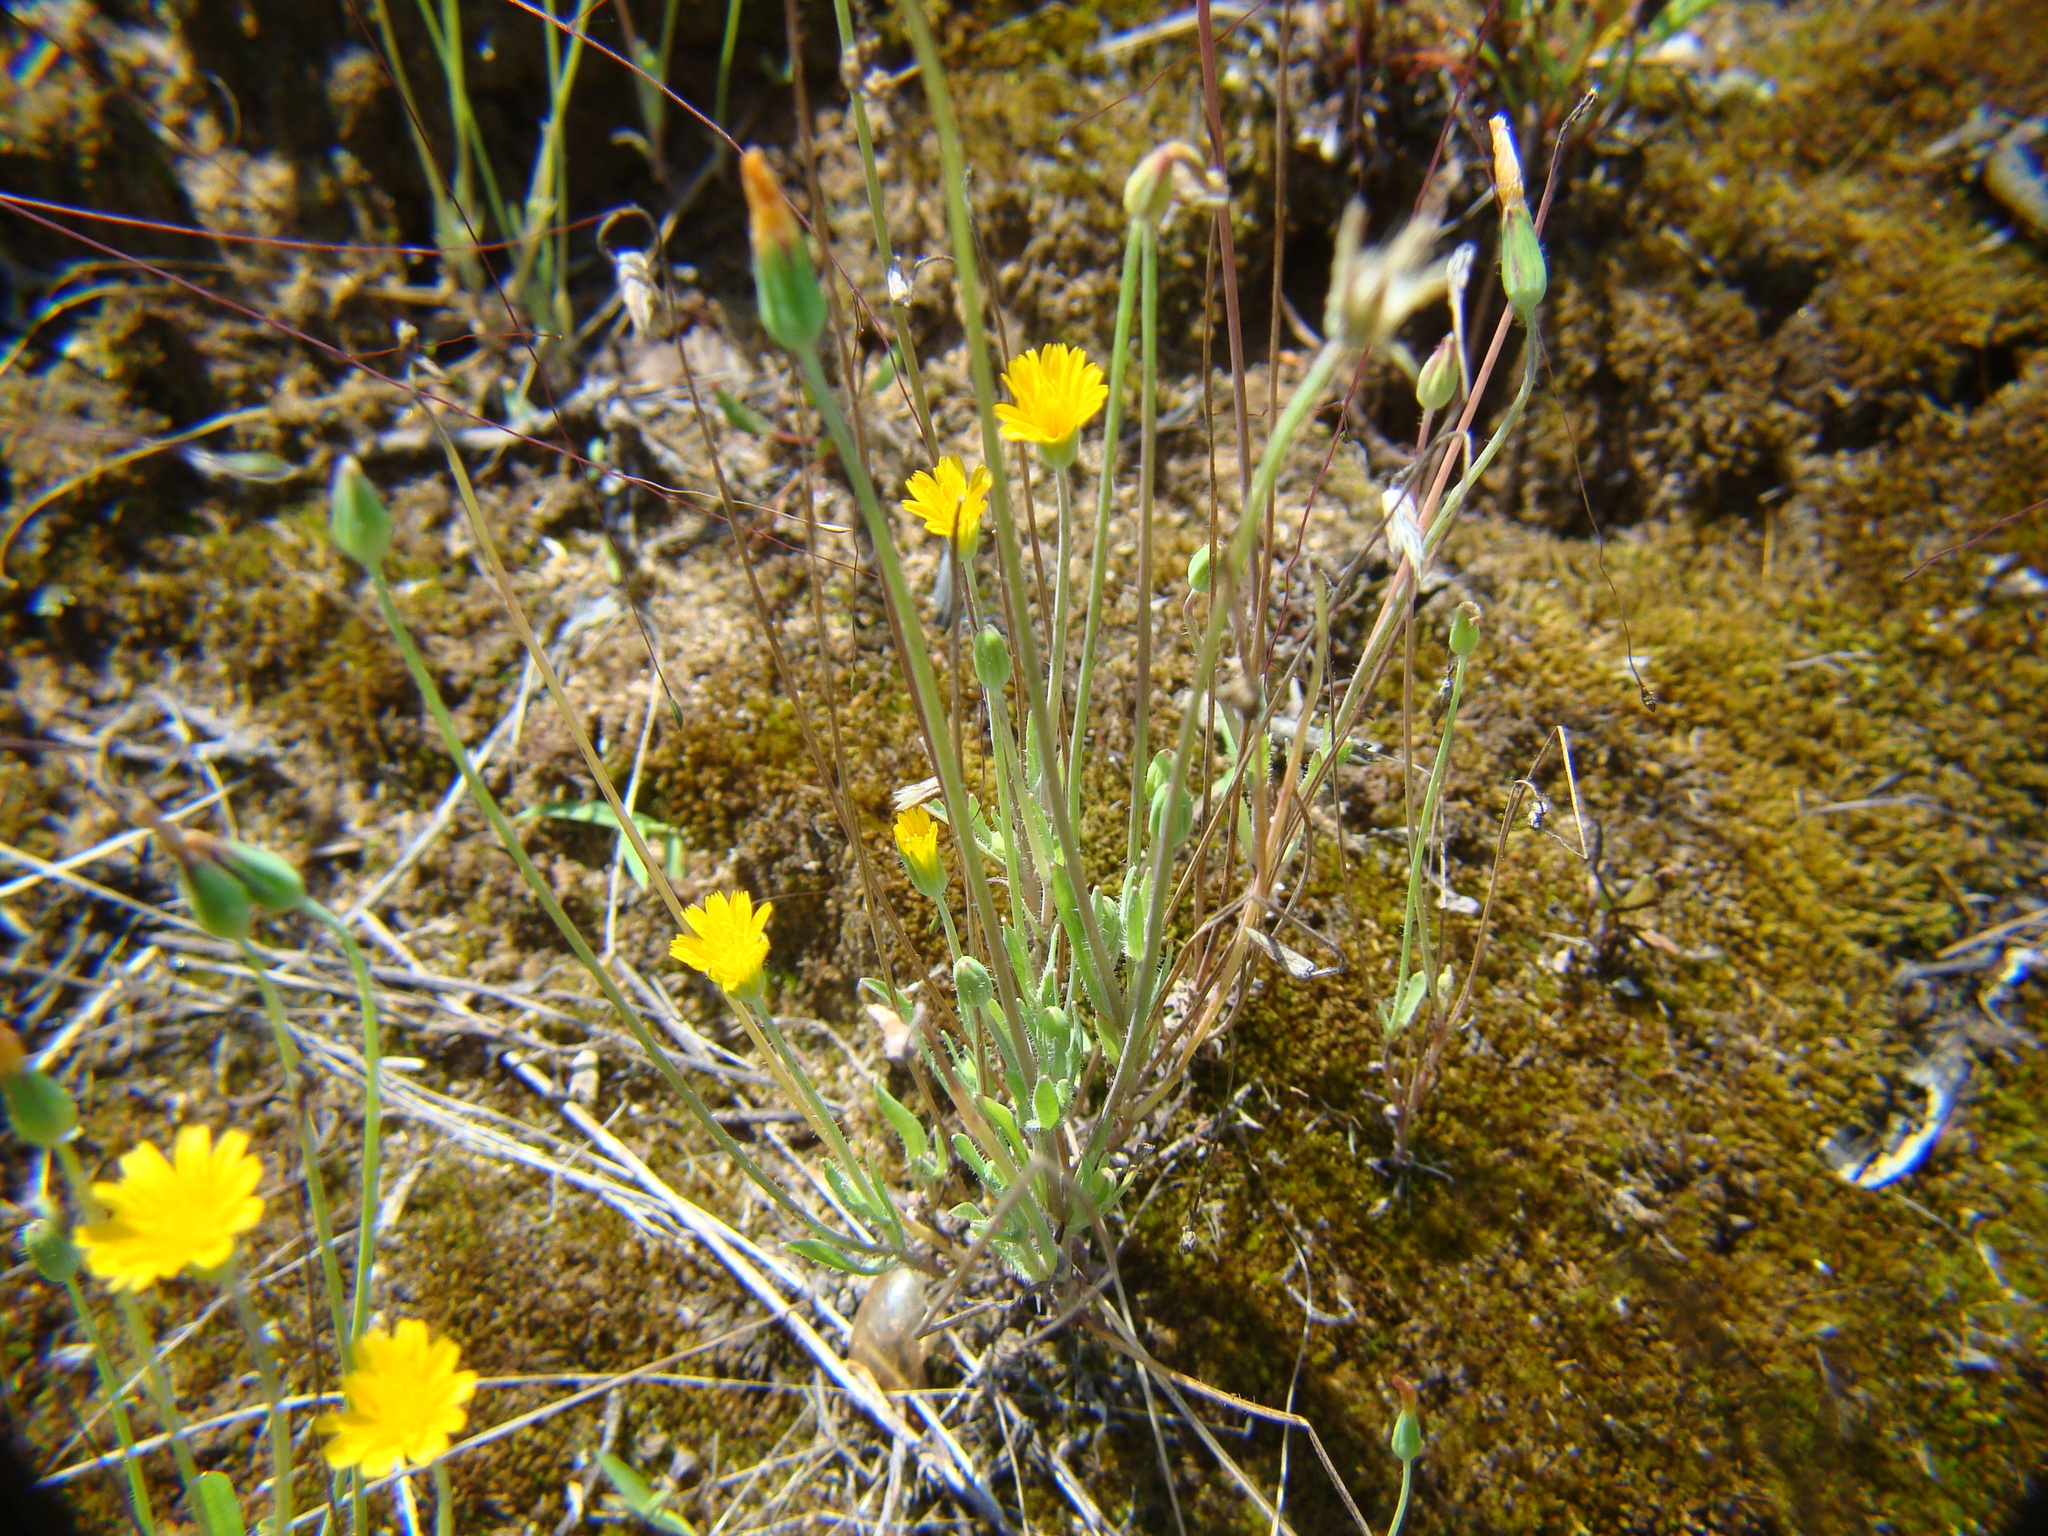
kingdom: Plantae
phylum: Tracheophyta
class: Magnoliopsida
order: Asterales
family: Asteraceae
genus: Krigia
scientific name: Krigia virginica
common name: Virginia dwarf-dandelion
